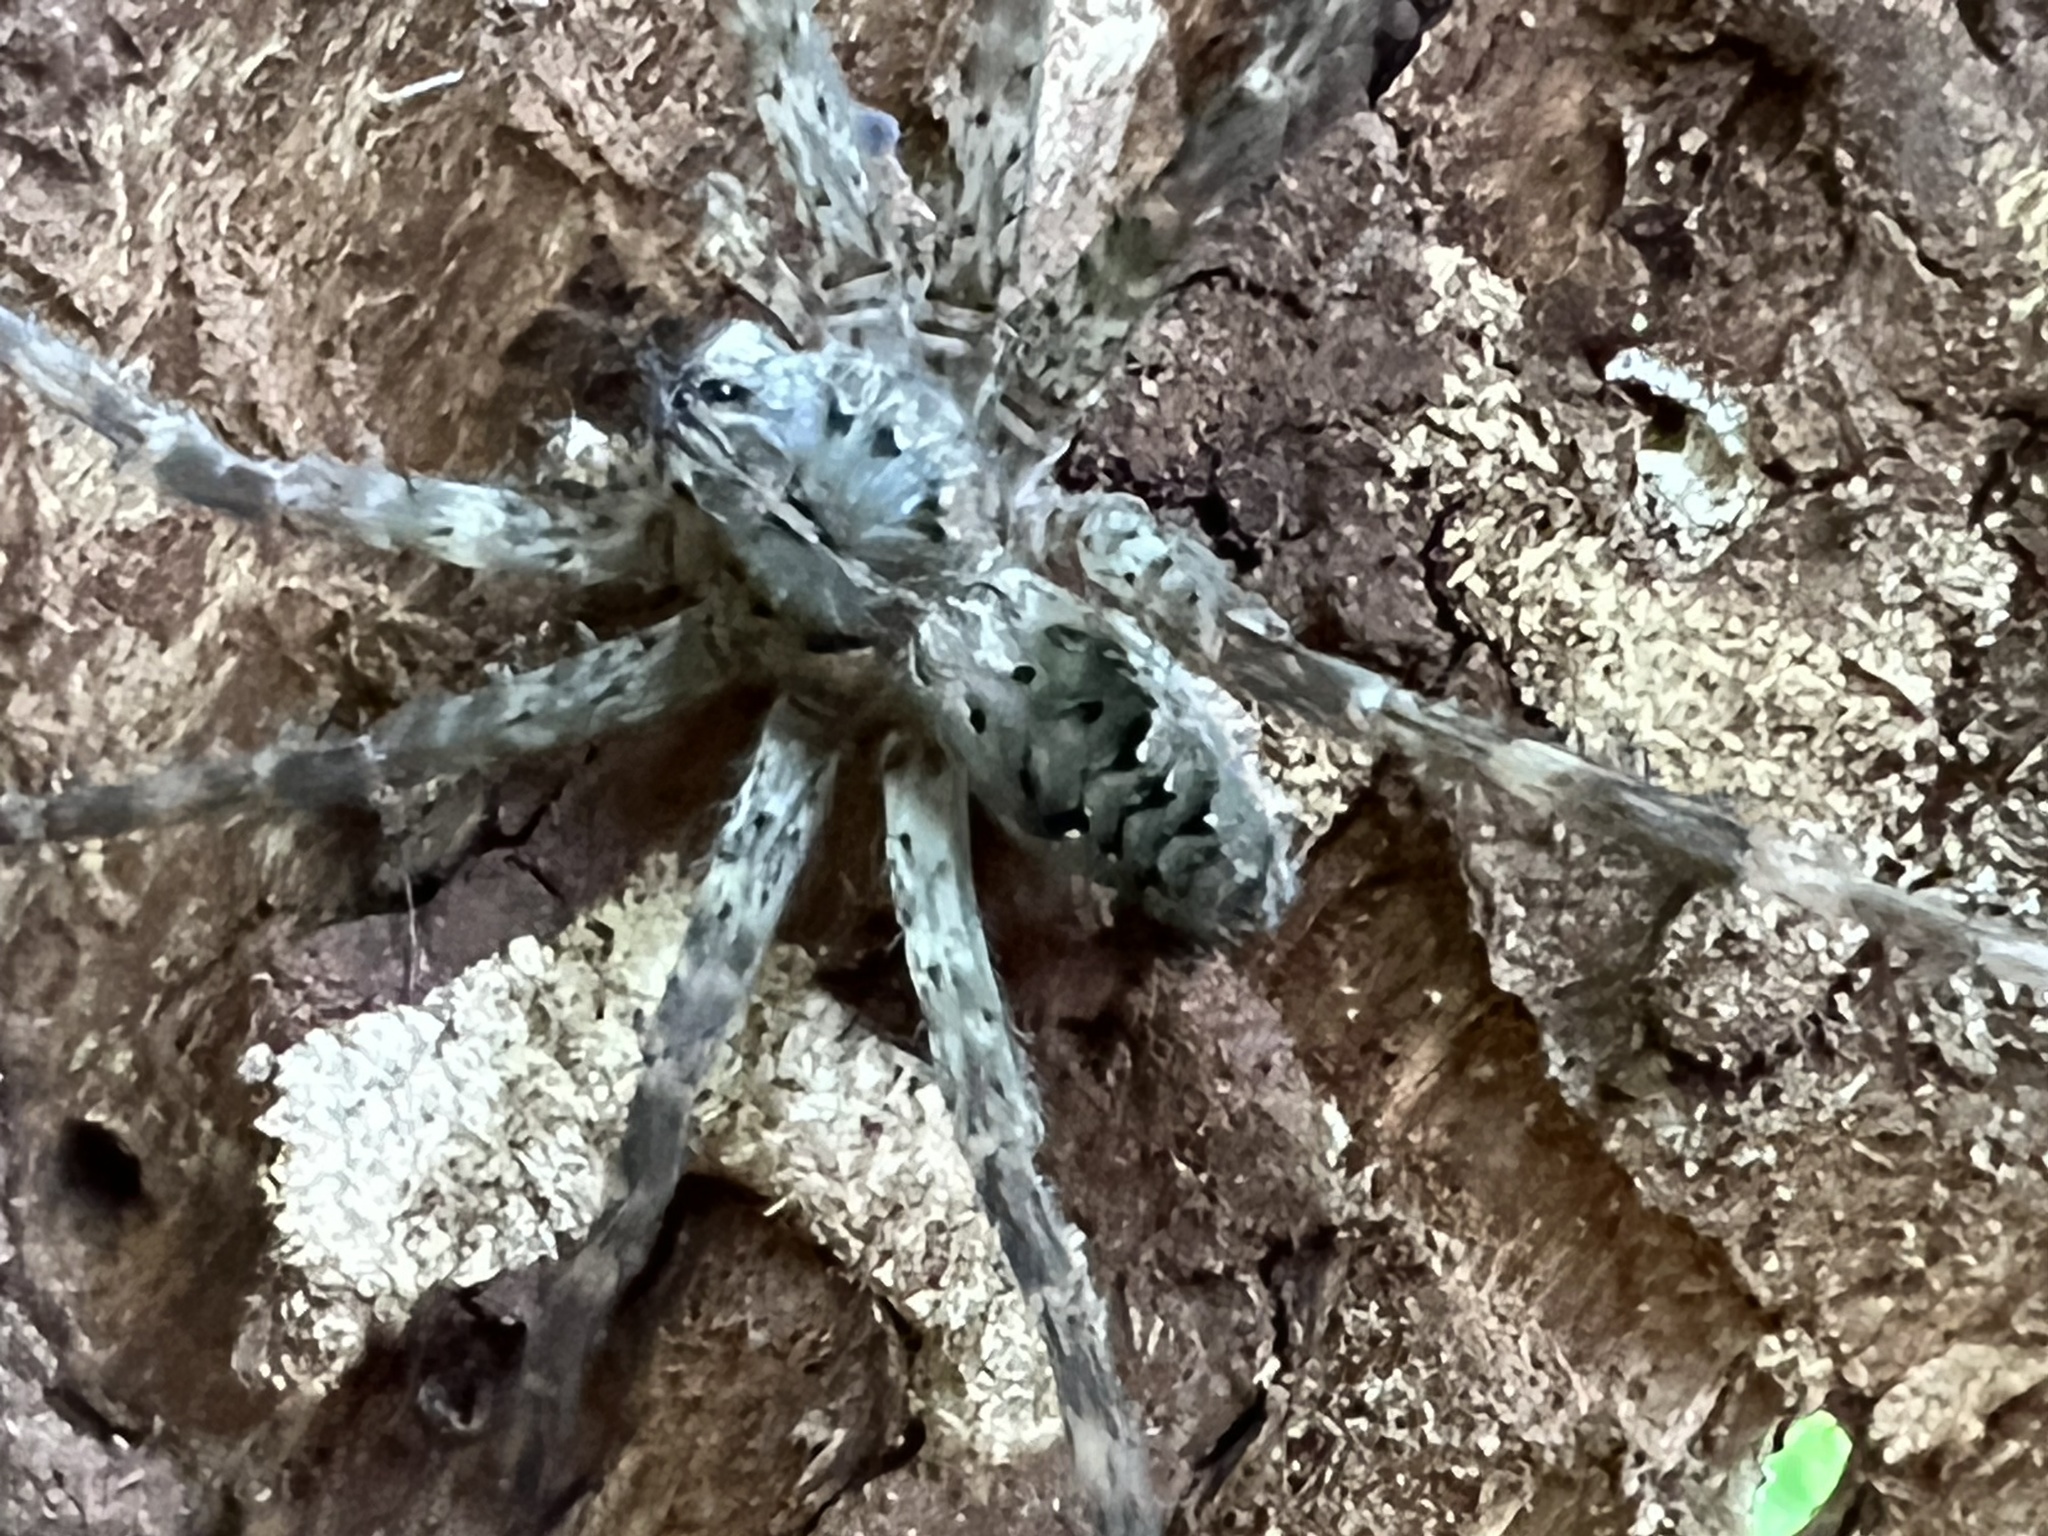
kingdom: Animalia
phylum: Arthropoda
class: Arachnida
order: Araneae
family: Pisauridae
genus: Dolomedes
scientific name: Dolomedes tenebrosus
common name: Dark fishing spider
